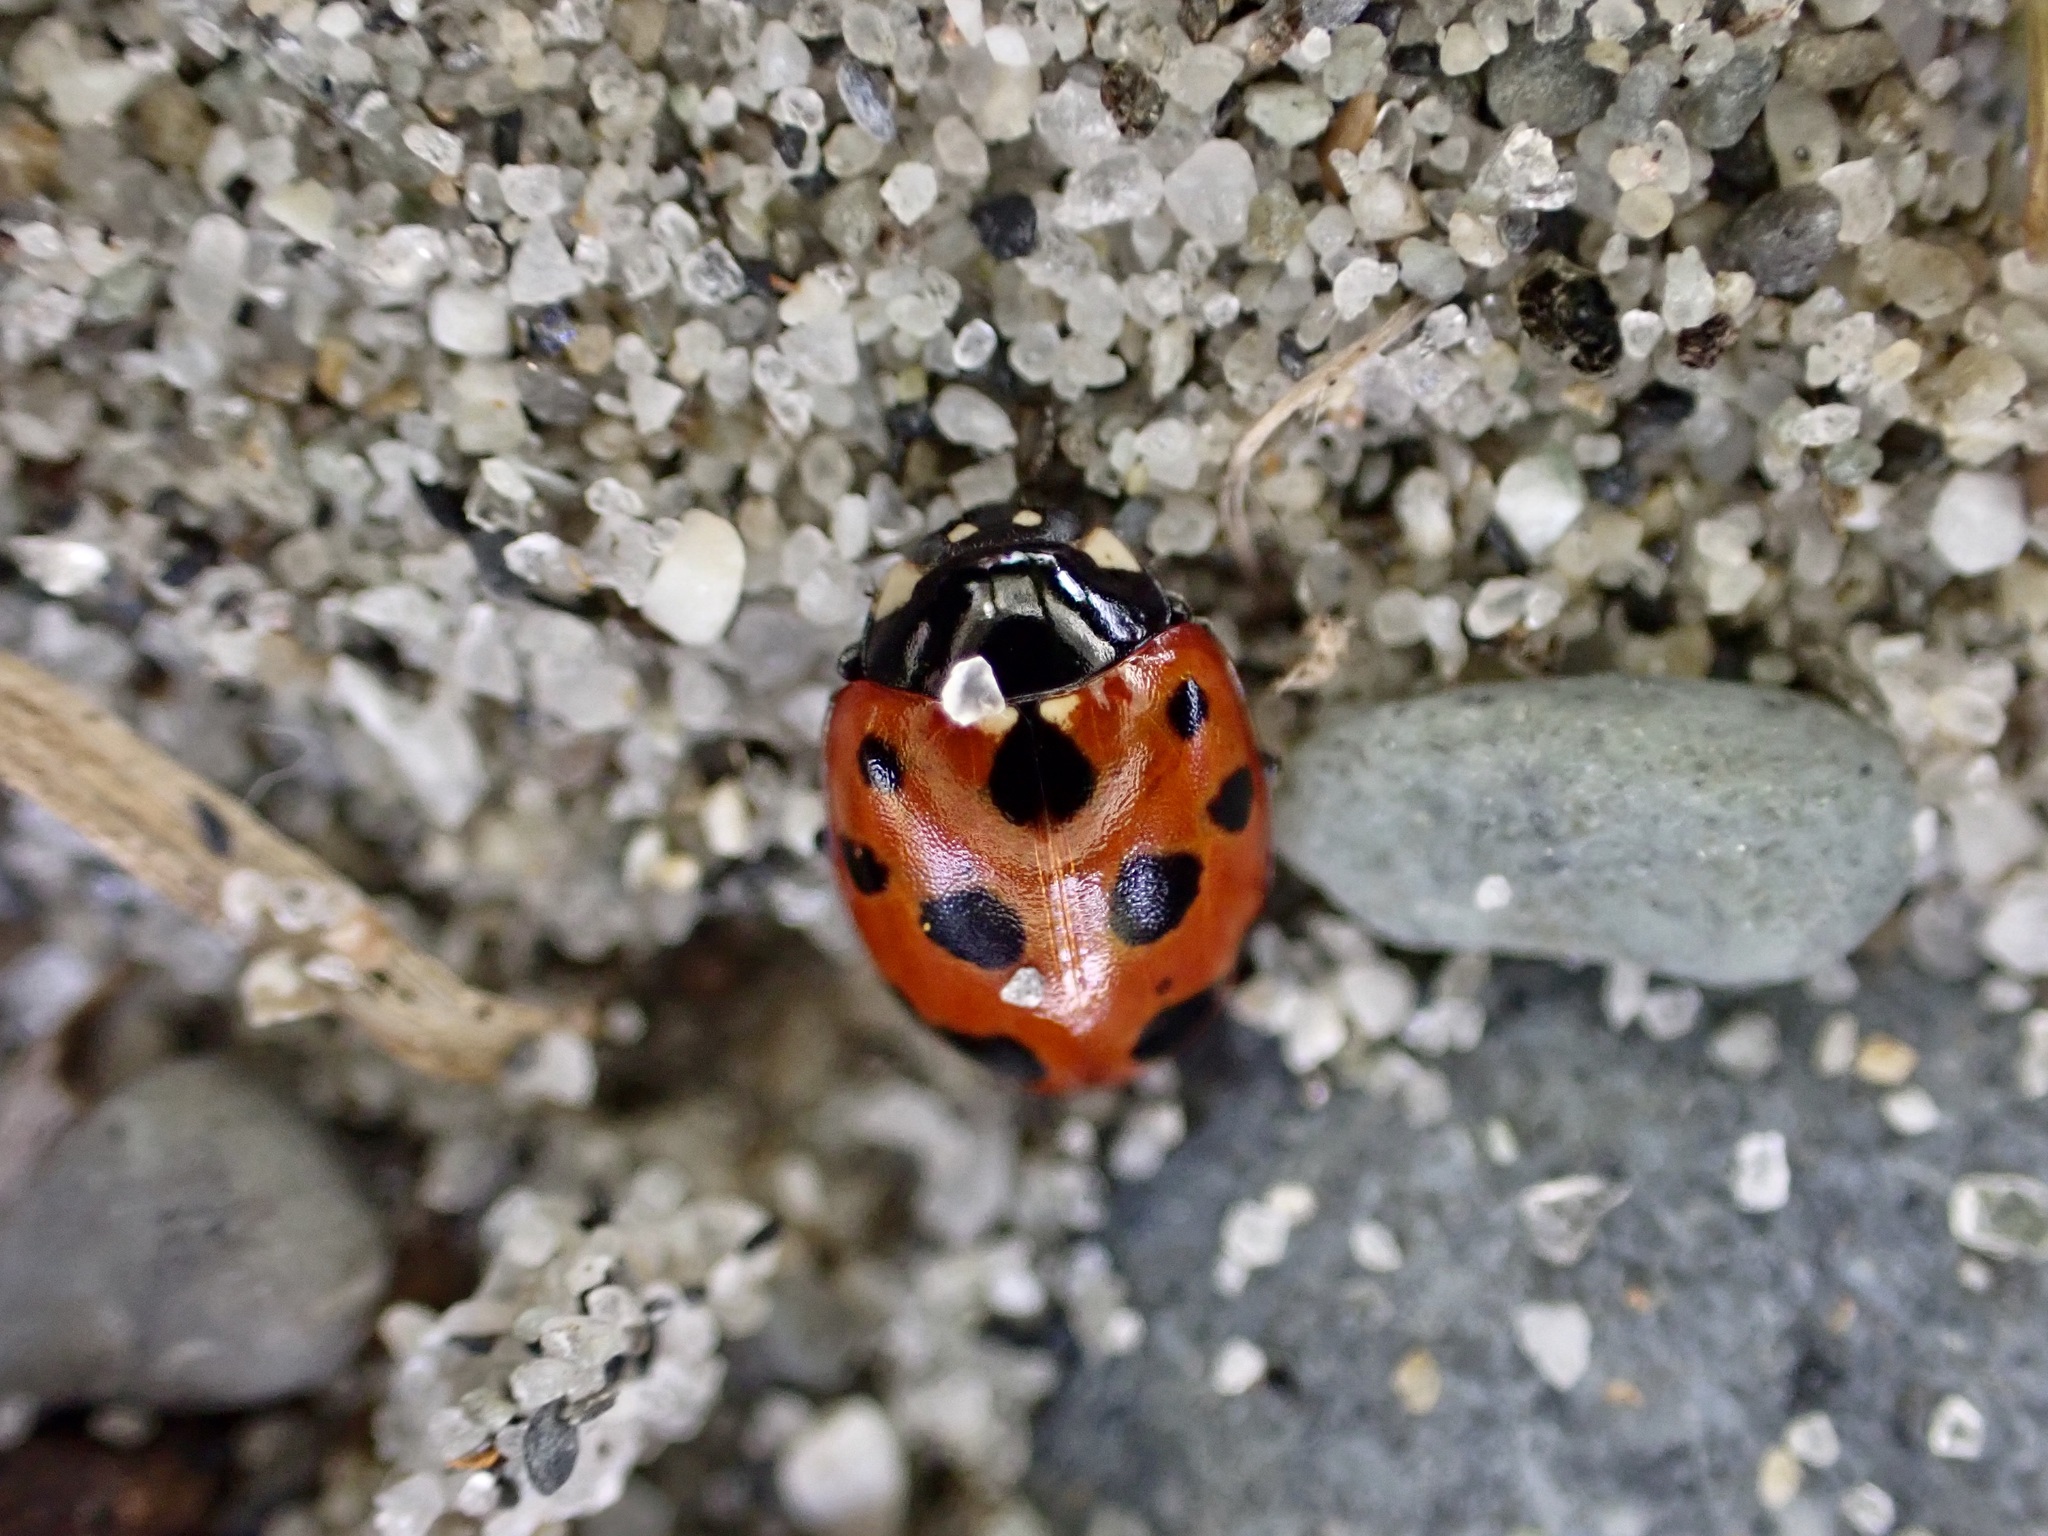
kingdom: Animalia
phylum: Arthropoda
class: Insecta
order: Coleoptera
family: Coccinellidae
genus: Coccinella
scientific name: Coccinella undecimpunctata
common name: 11-spot ladybird
